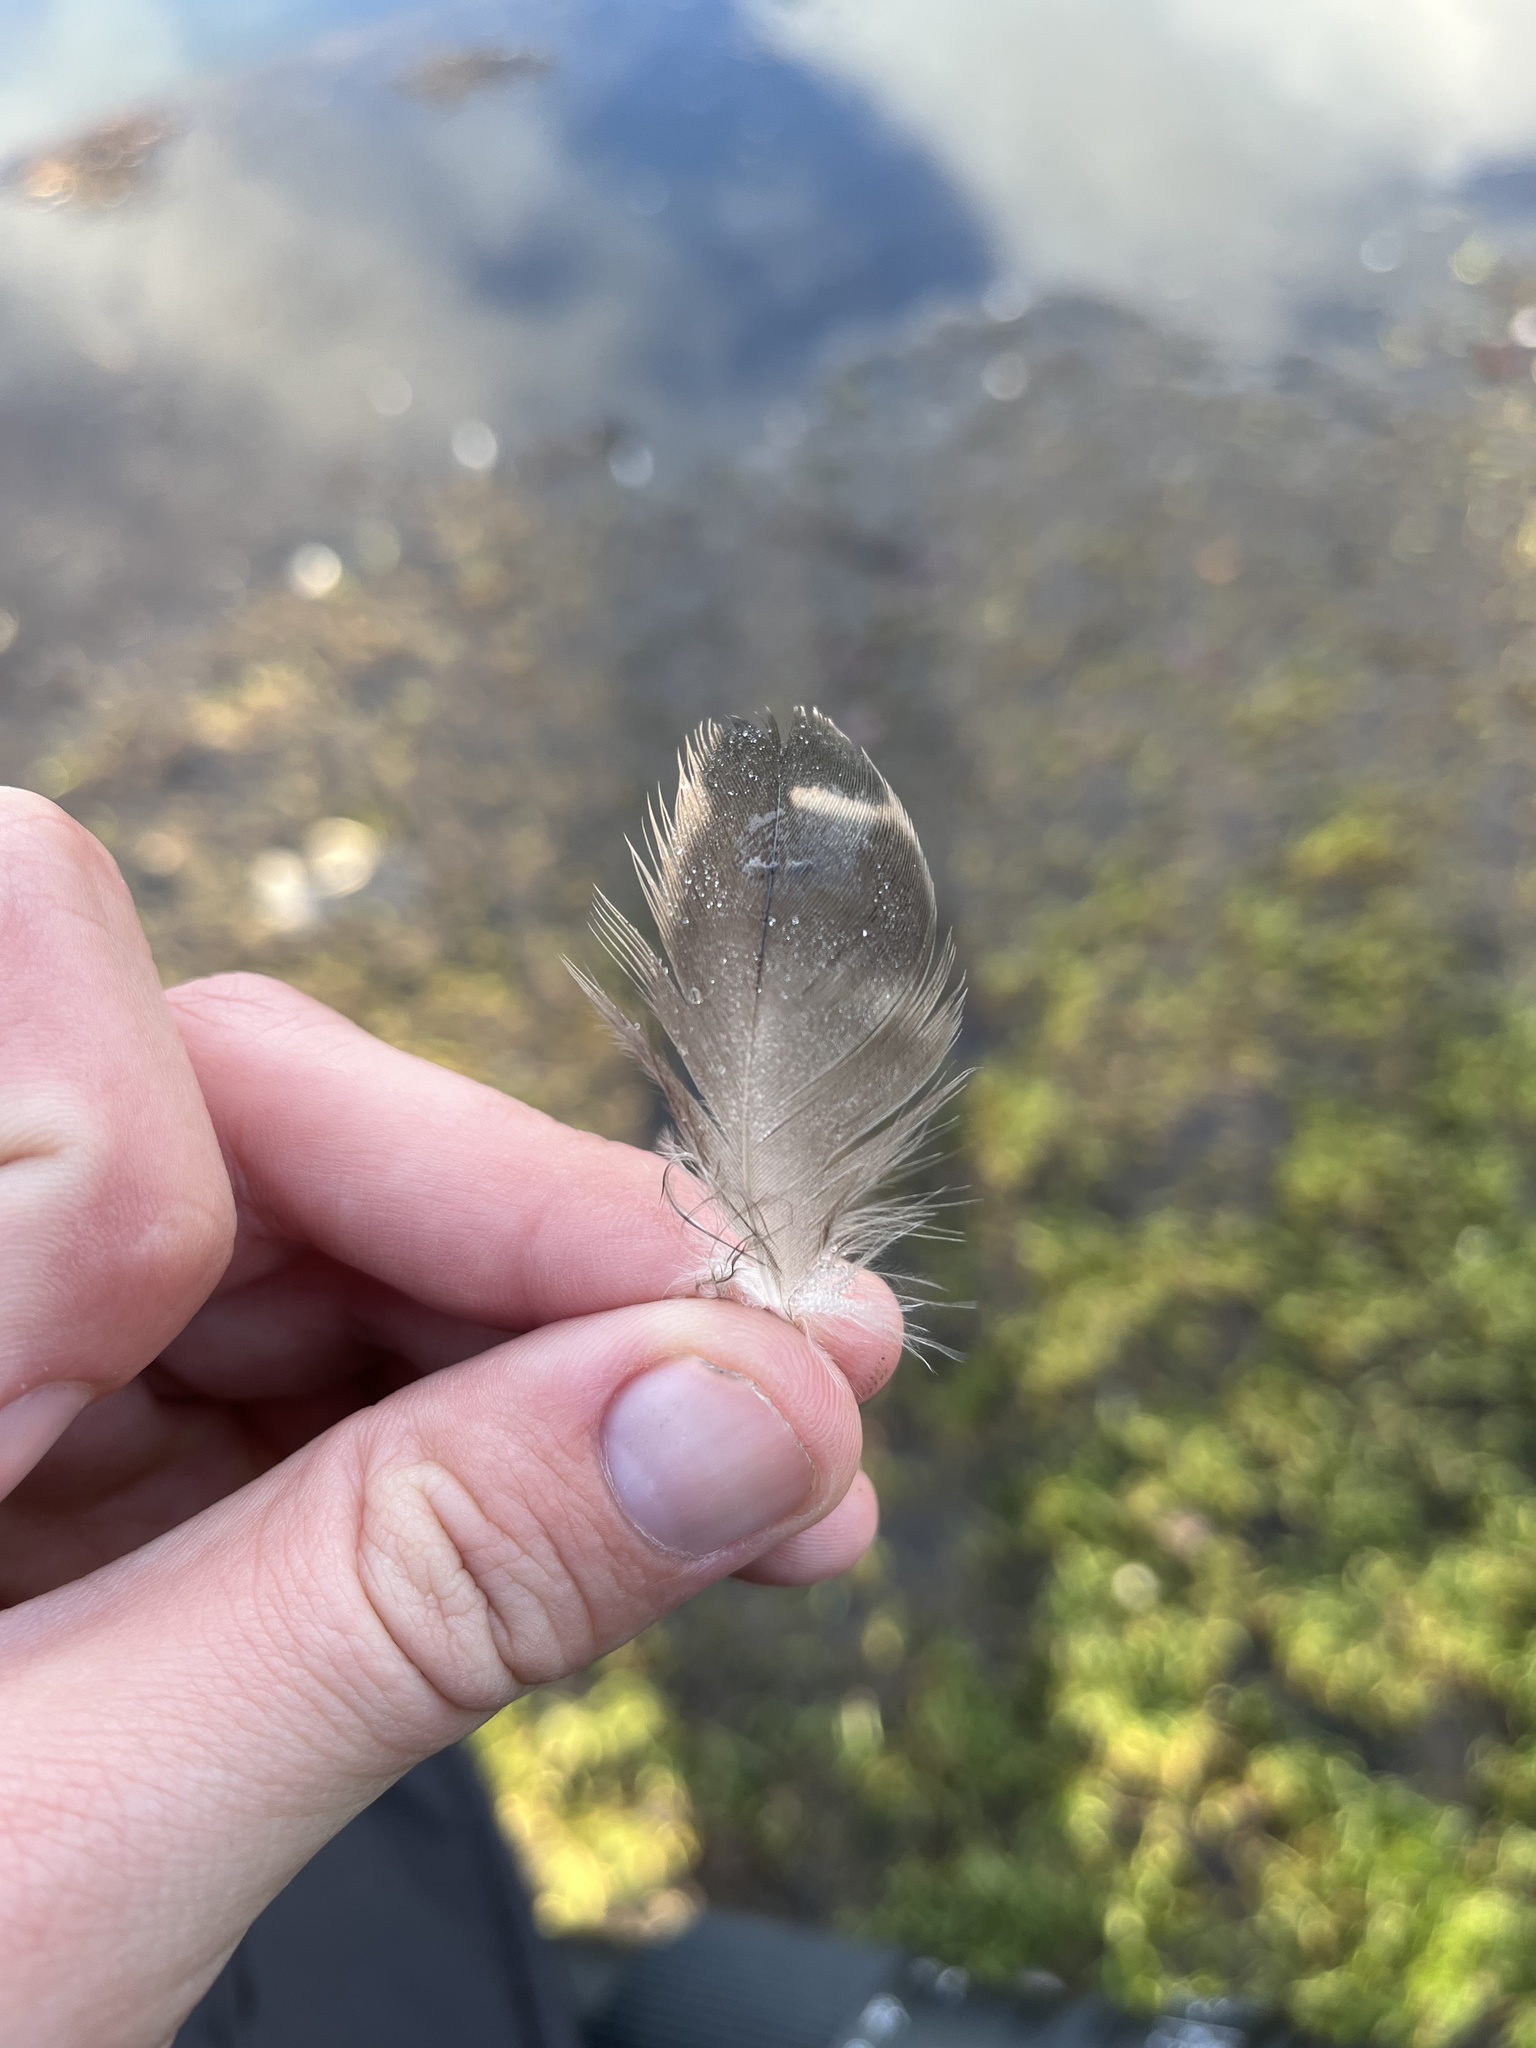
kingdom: Animalia
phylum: Chordata
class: Aves
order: Anseriformes
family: Anatidae
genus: Anas
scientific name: Anas platyrhynchos
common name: Mallard
